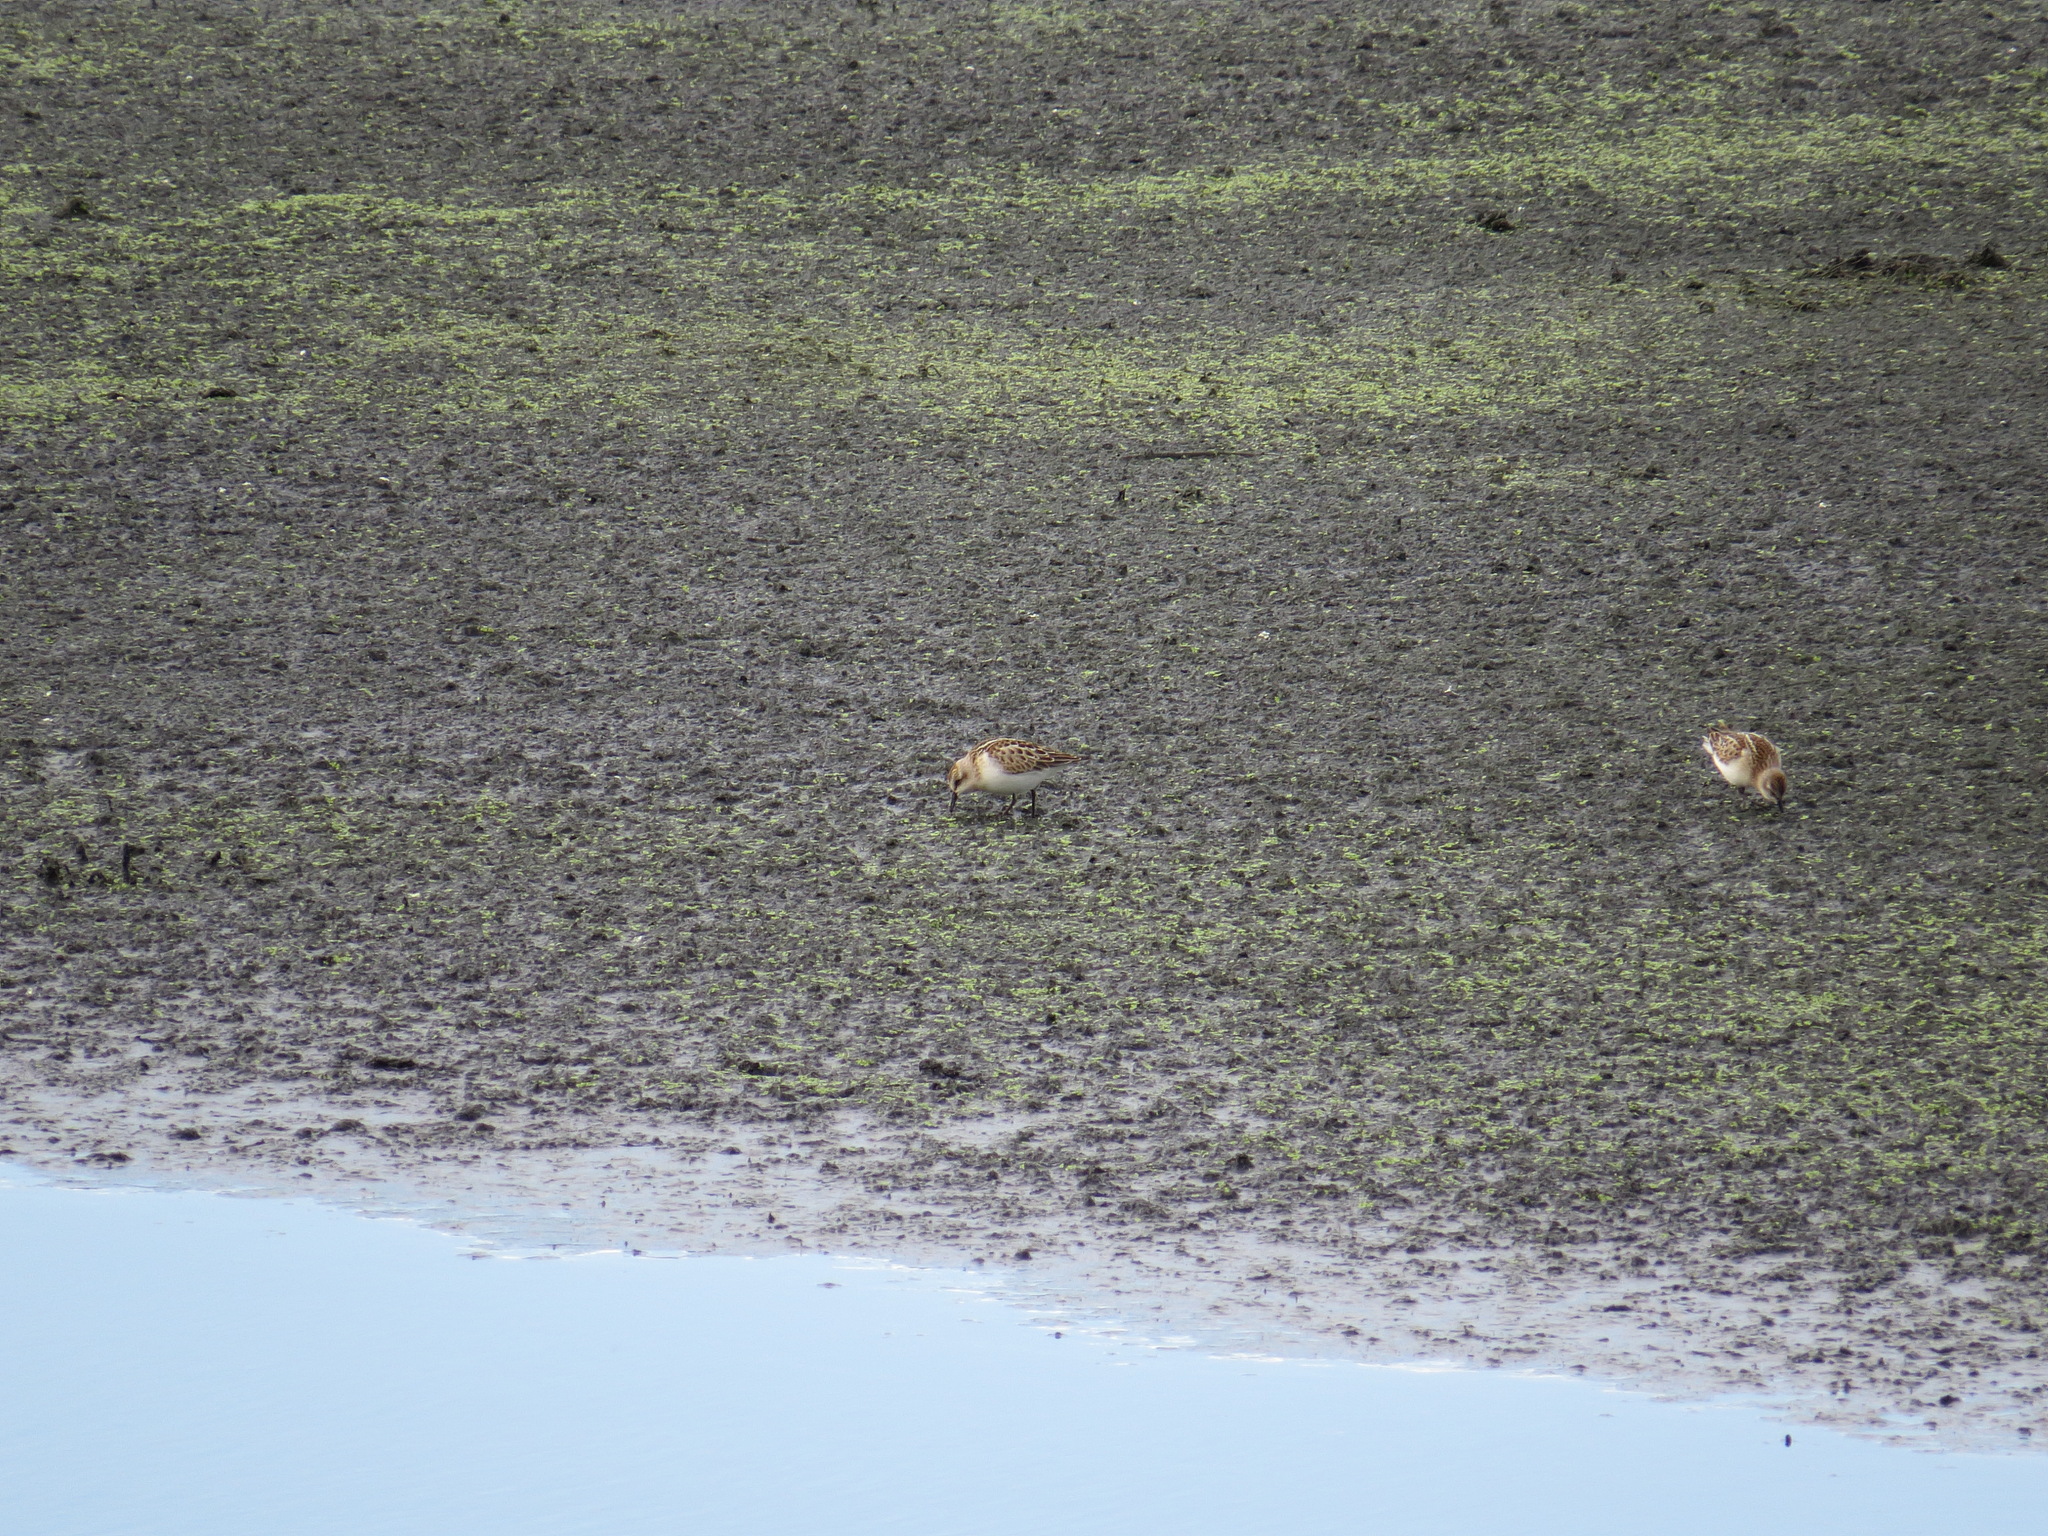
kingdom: Animalia
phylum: Chordata
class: Aves
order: Charadriiformes
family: Scolopacidae
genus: Calidris
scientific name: Calidris minuta
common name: Little stint
